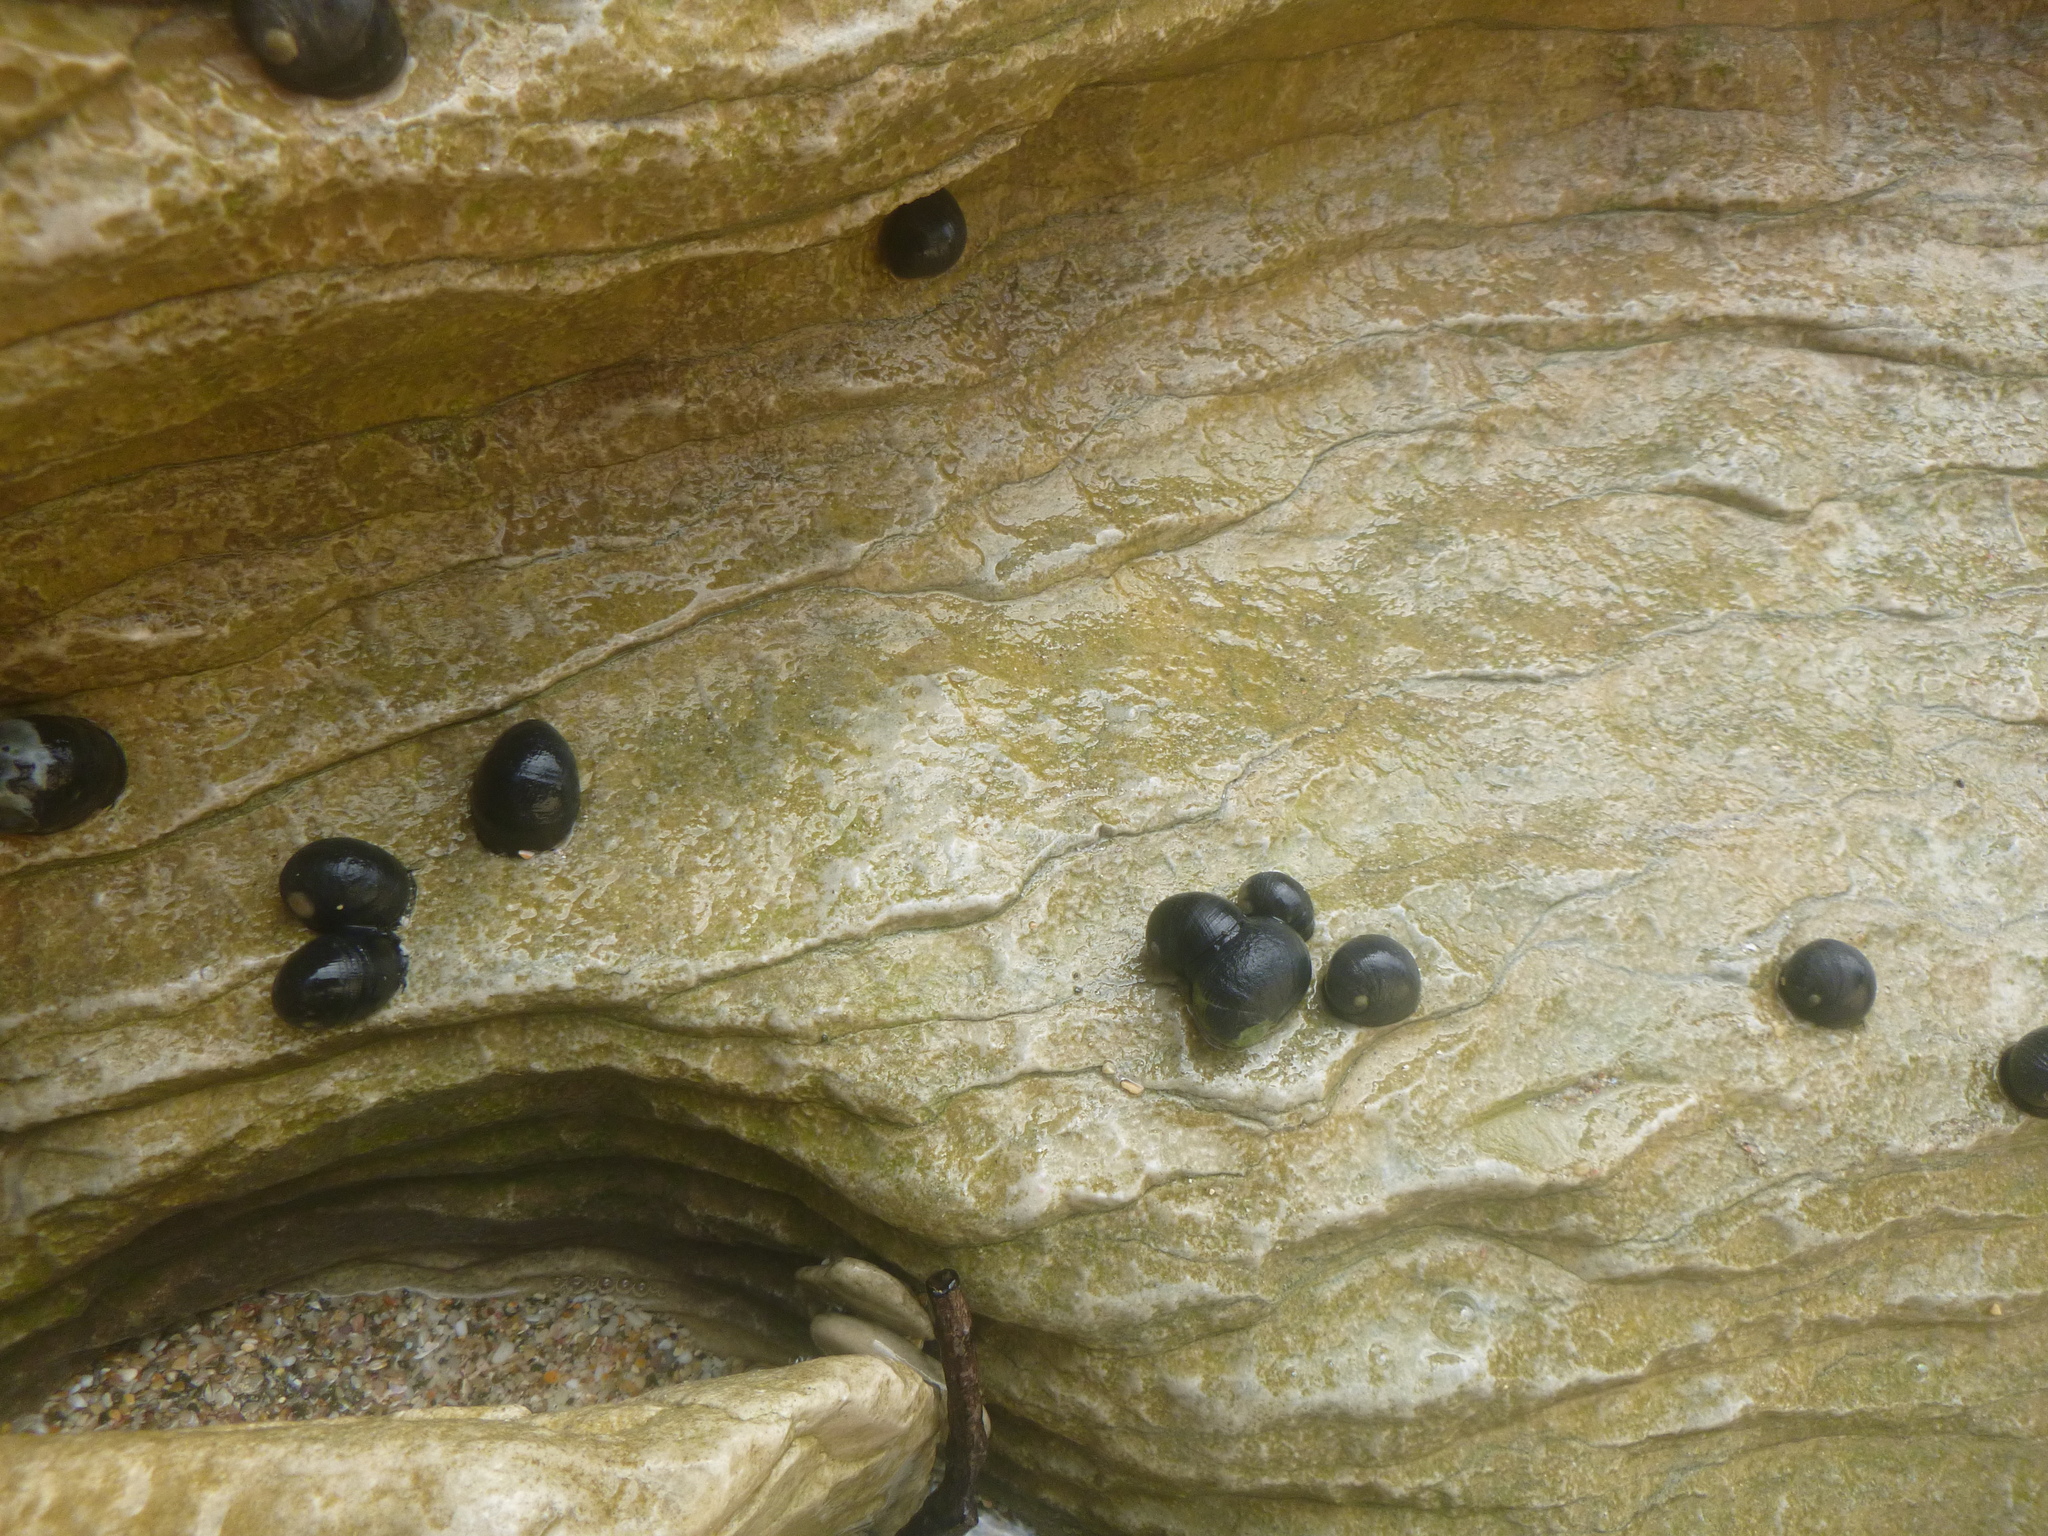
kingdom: Animalia
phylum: Mollusca
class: Gastropoda
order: Cycloneritida
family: Neritidae
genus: Nerita
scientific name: Nerita melanotragus
